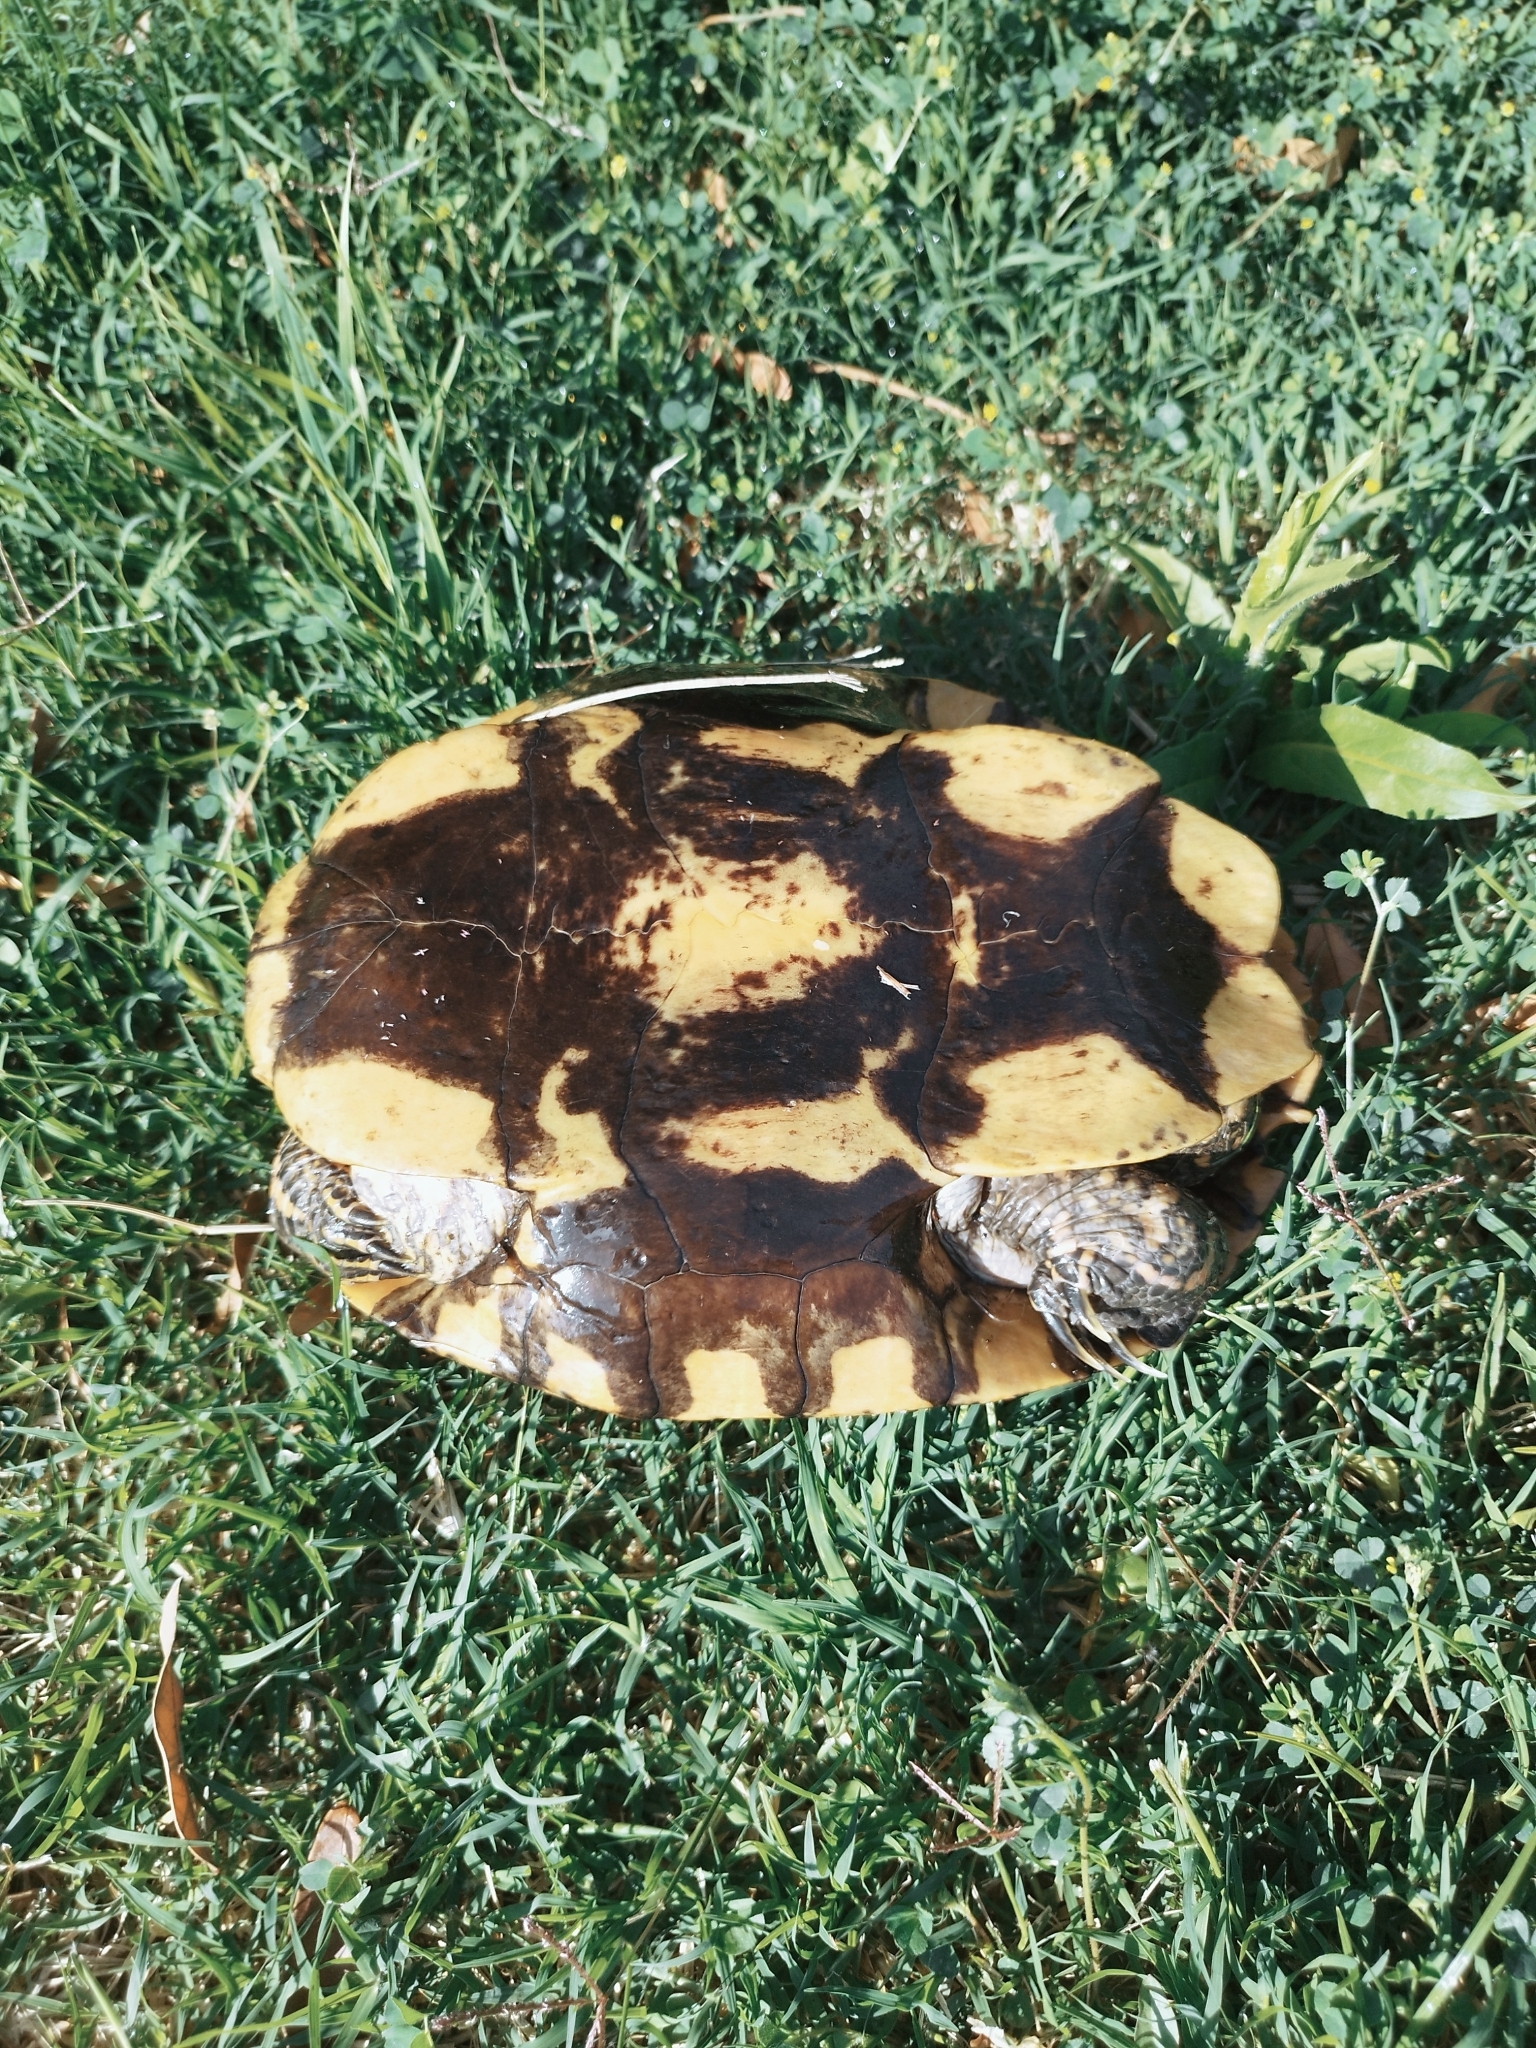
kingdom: Animalia
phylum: Chordata
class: Testudines
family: Emydidae
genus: Trachemys
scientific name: Trachemys dorbigni
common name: Black-bellied slider
